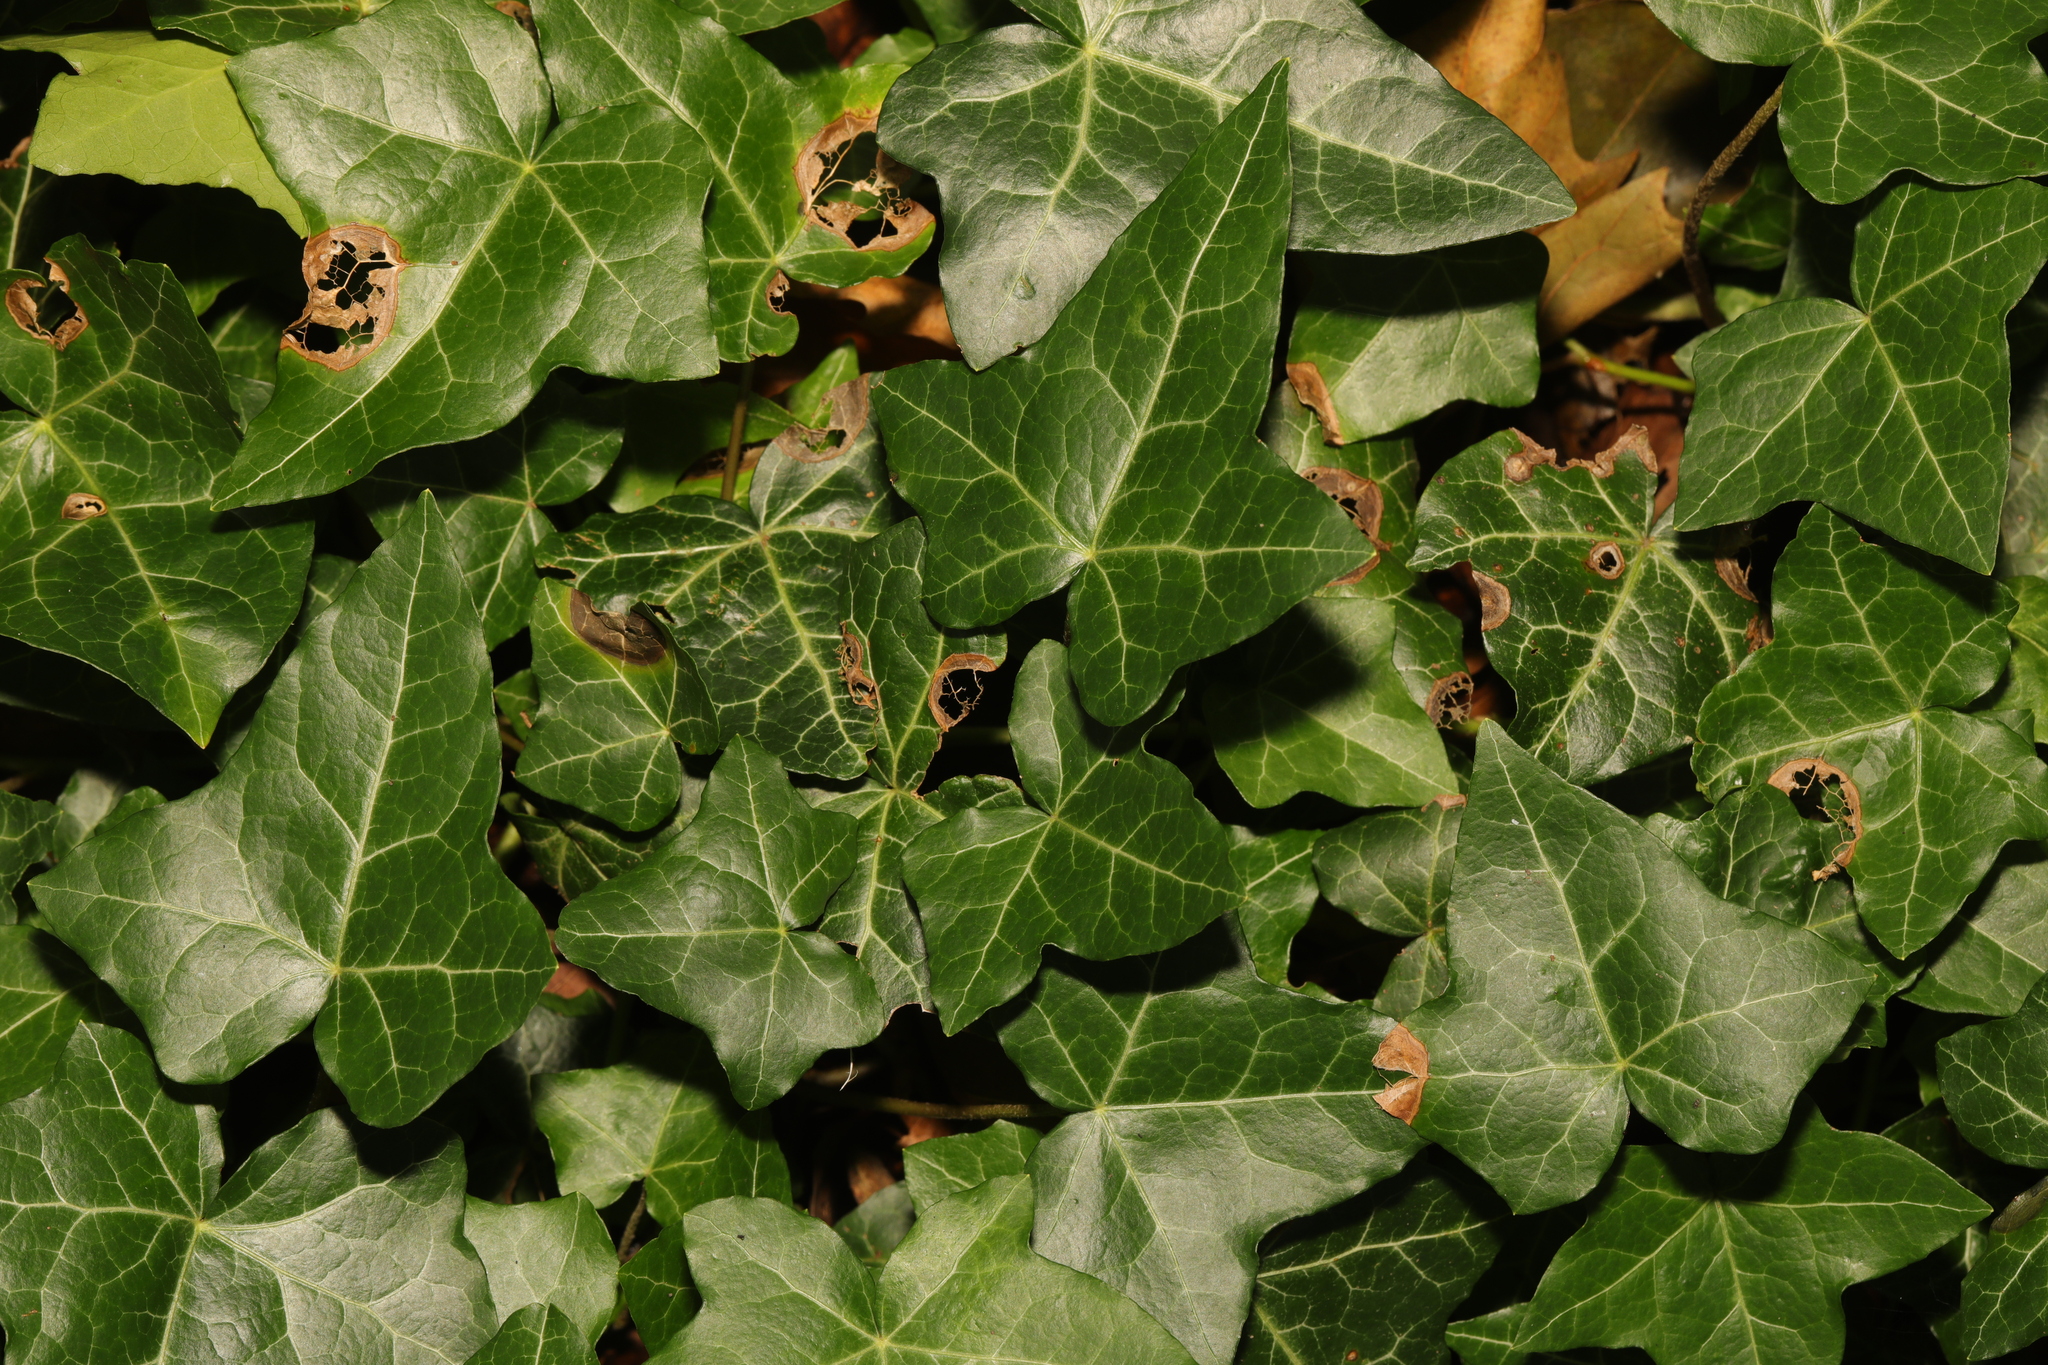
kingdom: Plantae
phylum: Tracheophyta
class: Magnoliopsida
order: Apiales
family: Araliaceae
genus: Hedera
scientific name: Hedera helix
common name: Ivy
